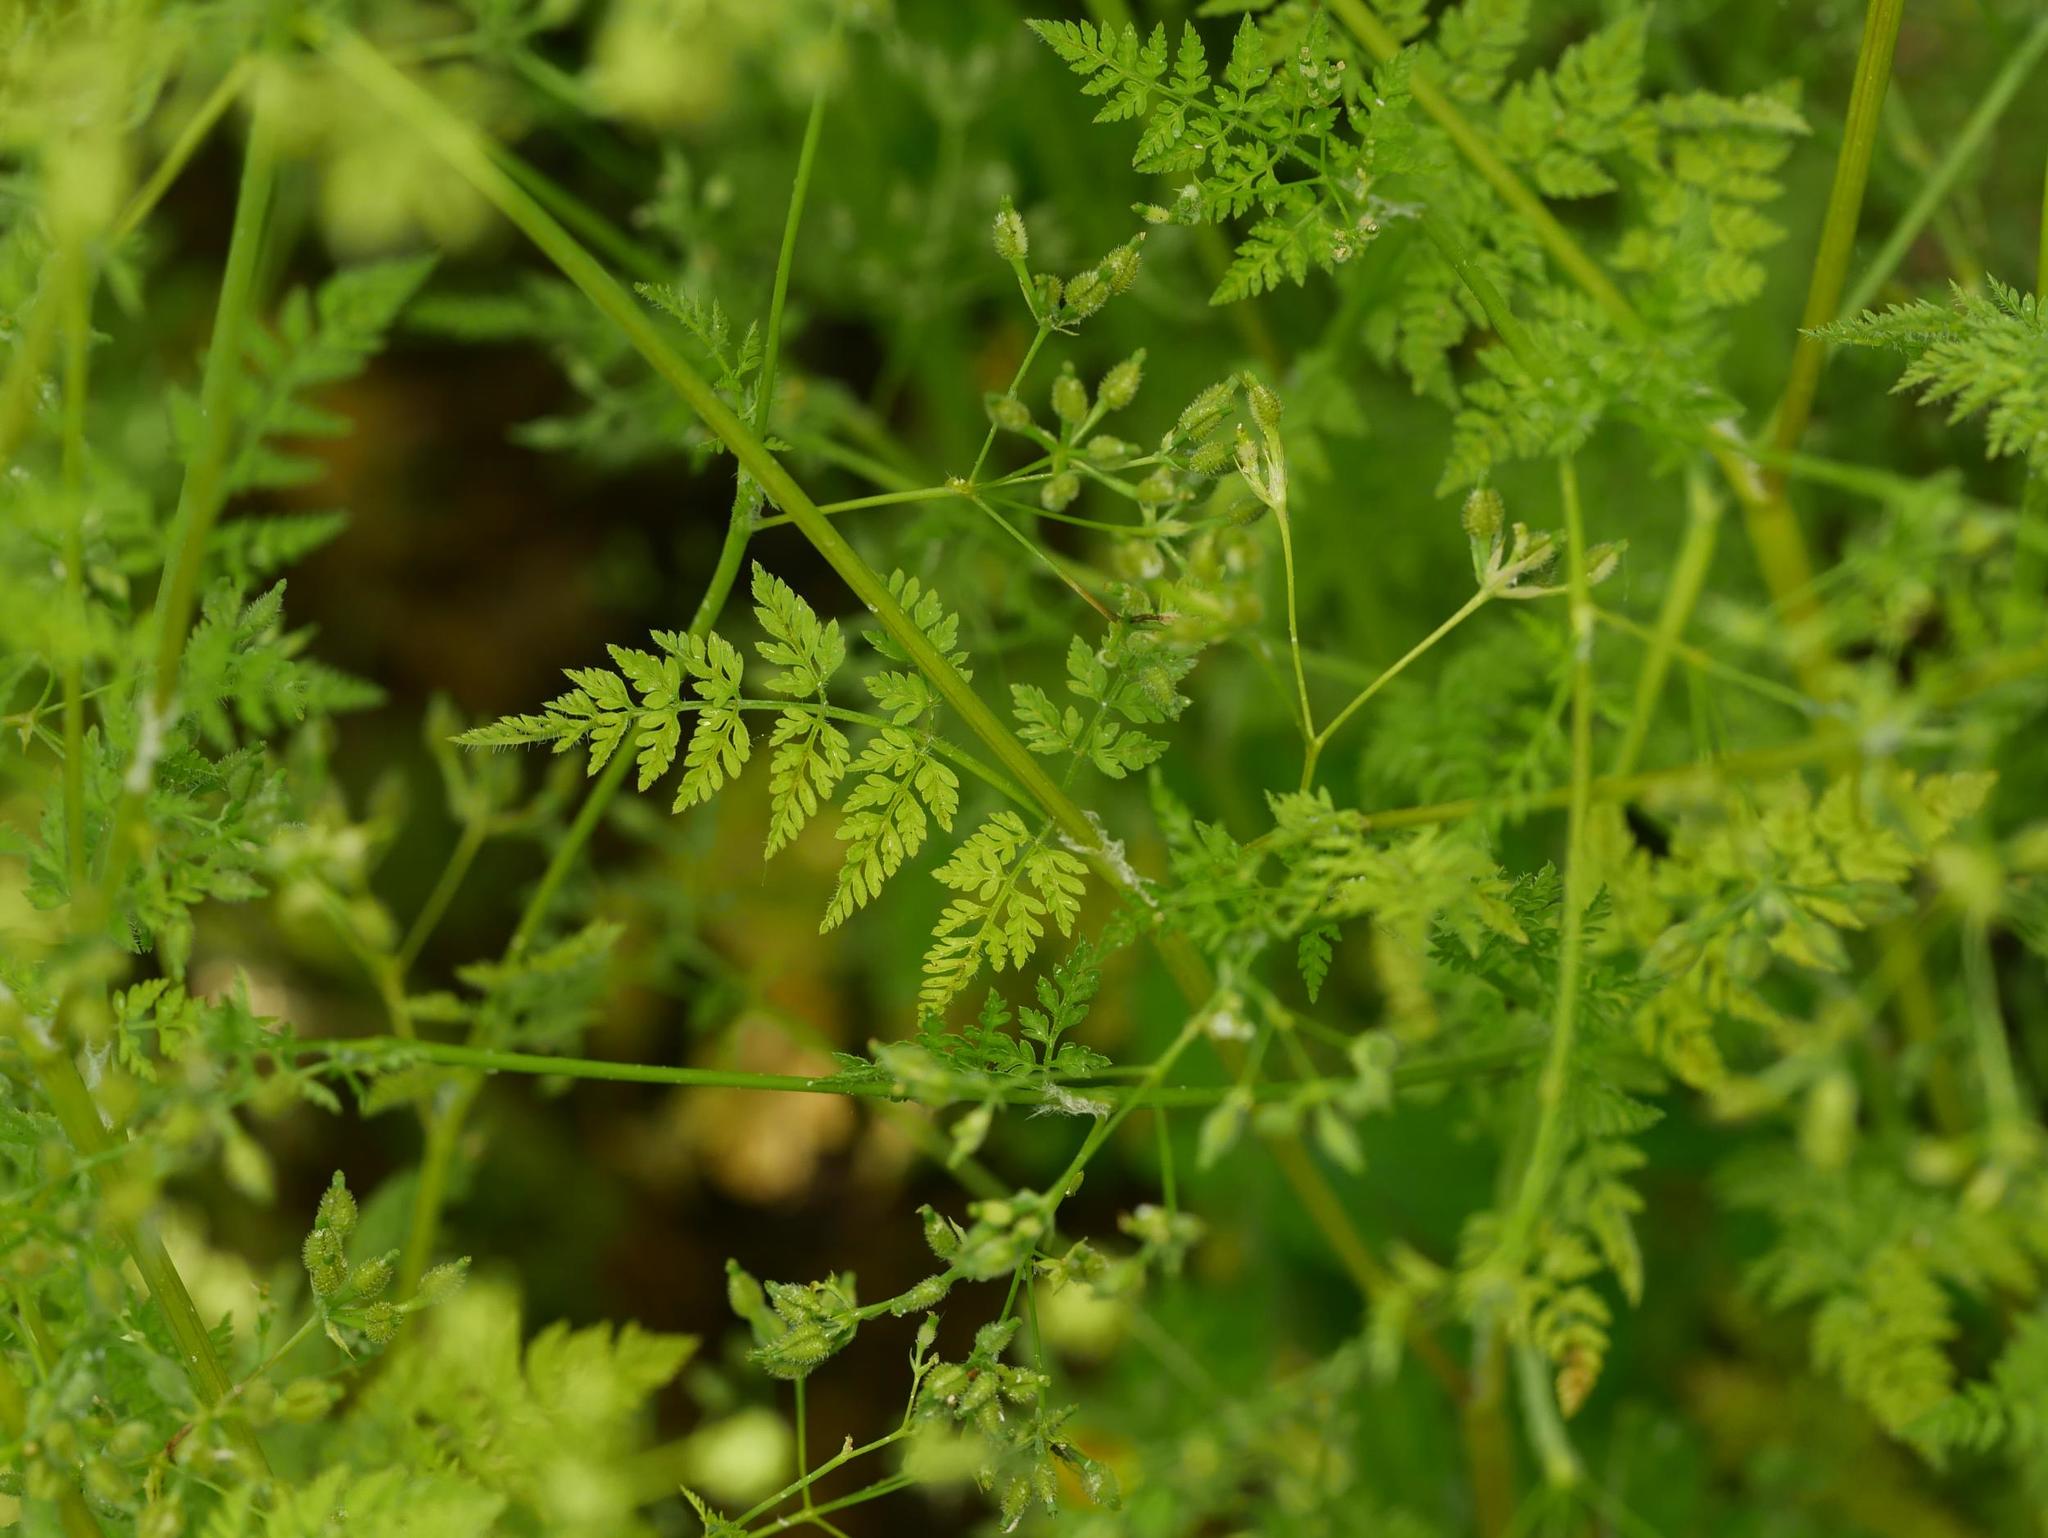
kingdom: Plantae
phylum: Tracheophyta
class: Magnoliopsida
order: Apiales
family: Apiaceae
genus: Anthriscus
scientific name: Anthriscus caucalis
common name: Bur chervil
